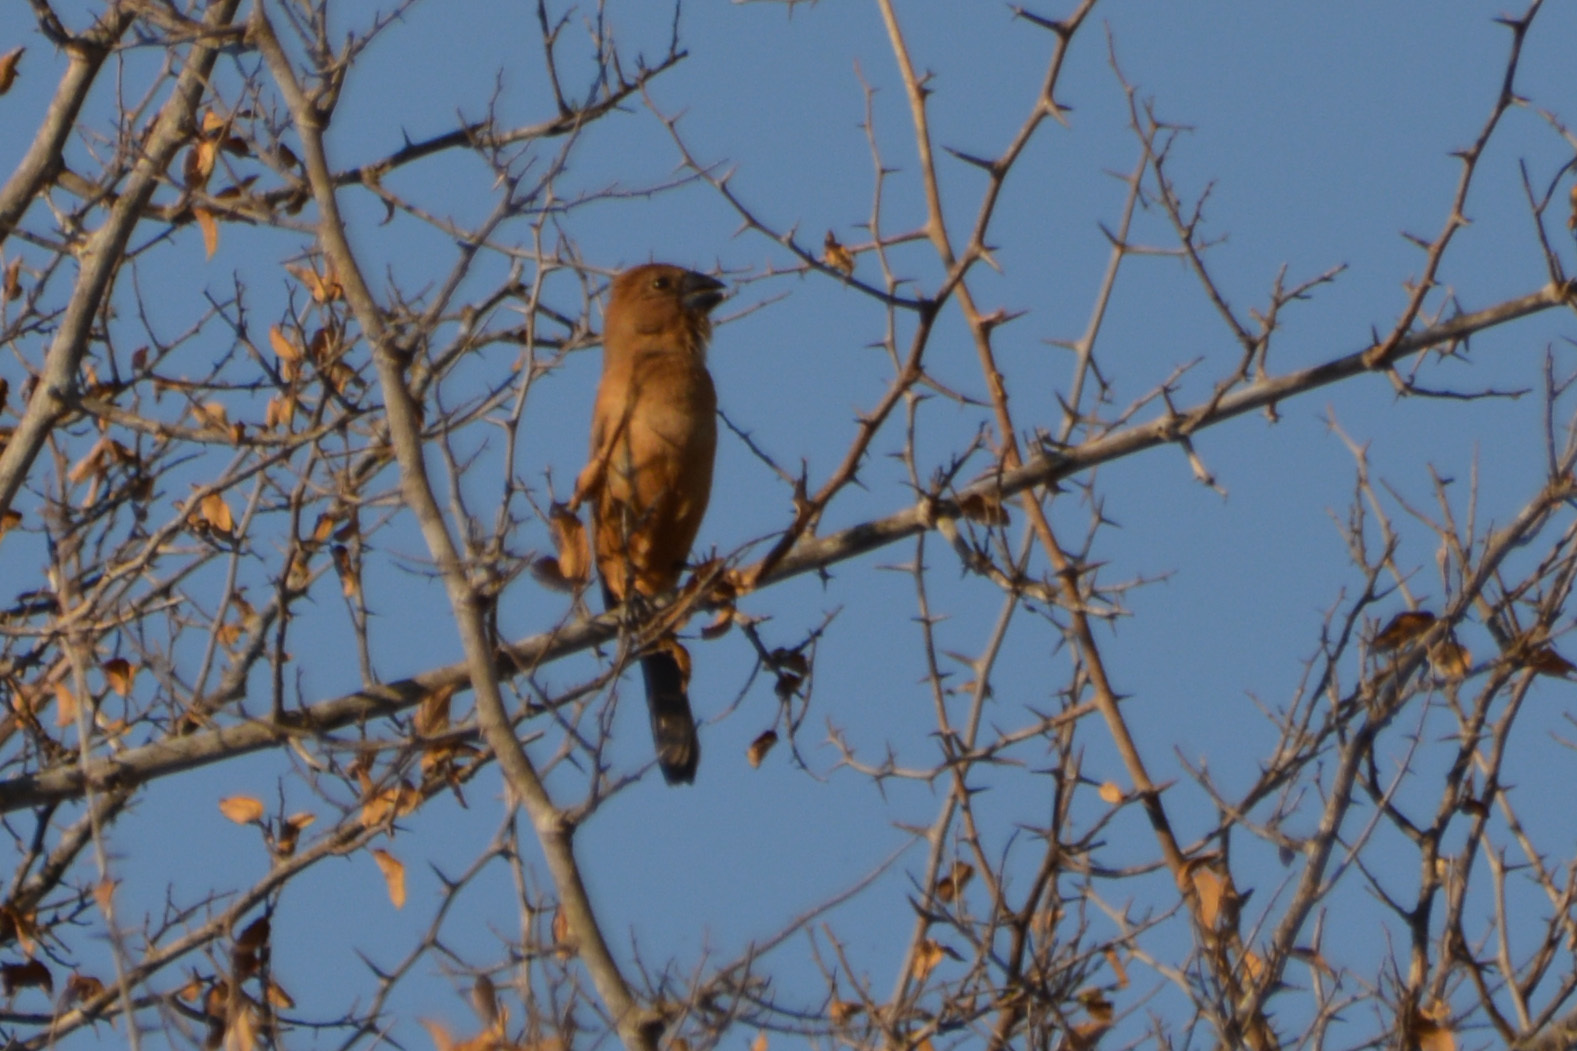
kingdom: Animalia
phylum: Chordata
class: Aves
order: Passeriformes
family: Cardinalidae
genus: Cyanoloxia
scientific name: Cyanoloxia brissonii
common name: Ultramarine grosbeak
